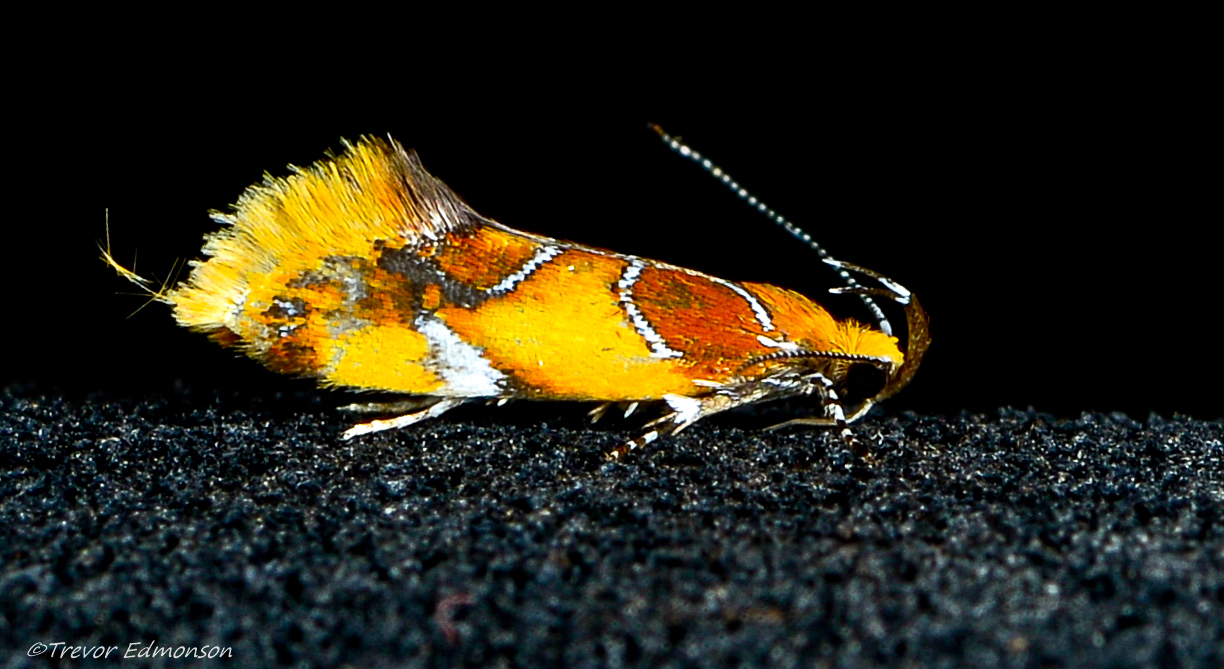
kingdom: Animalia
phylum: Arthropoda
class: Insecta
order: Lepidoptera
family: Oecophoridae
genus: Callima
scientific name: Callima argenticinctella
